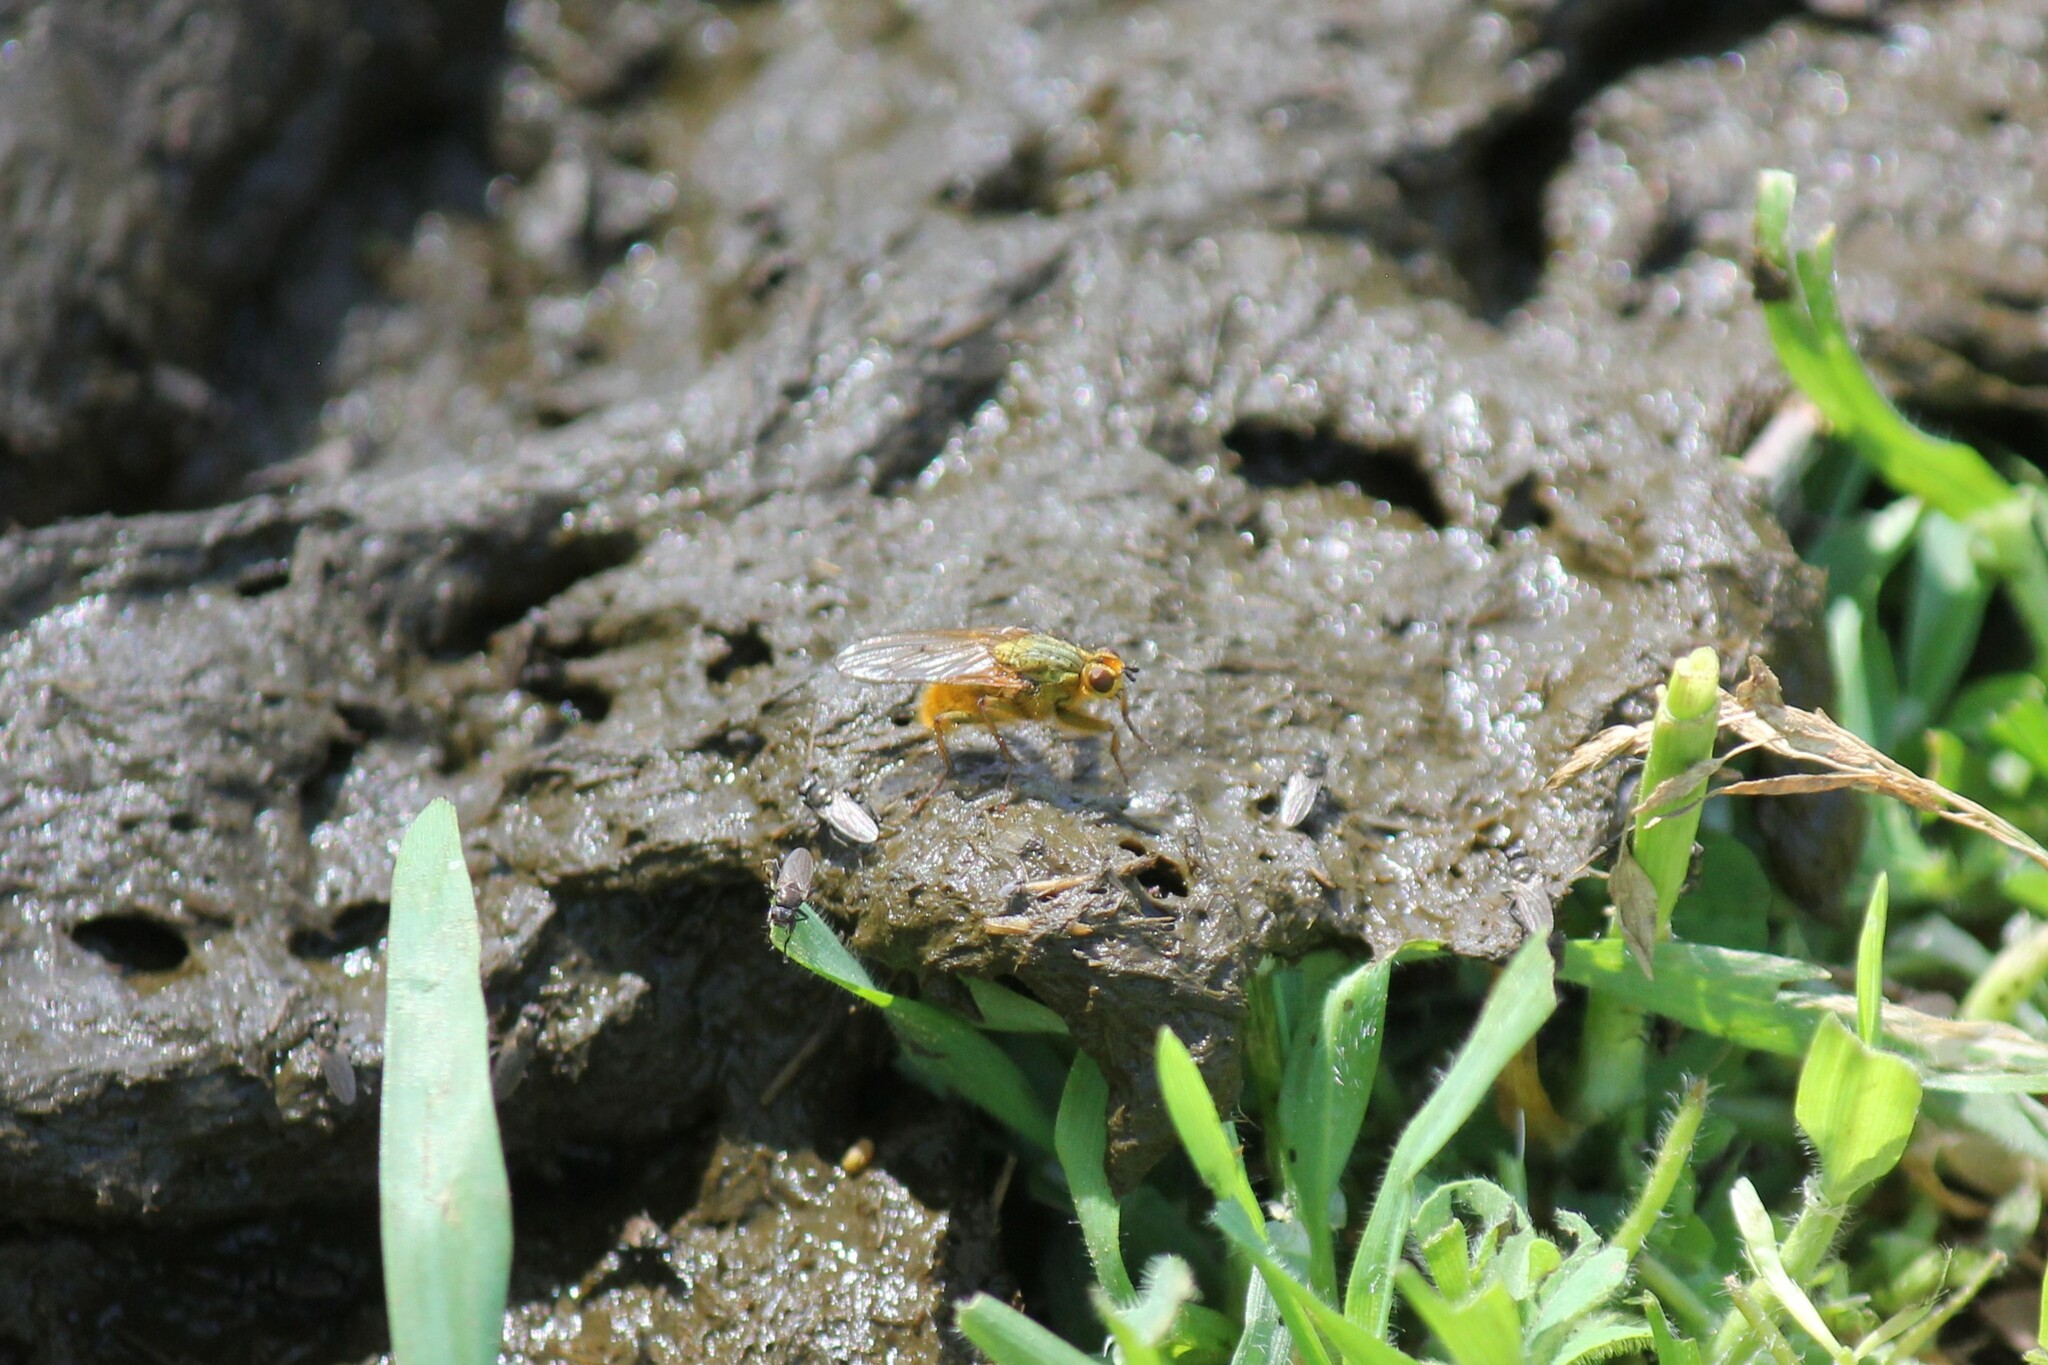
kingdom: Animalia
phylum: Arthropoda
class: Insecta
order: Diptera
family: Scathophagidae
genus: Scathophaga
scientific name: Scathophaga stercoraria
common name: Yellow dung fly
